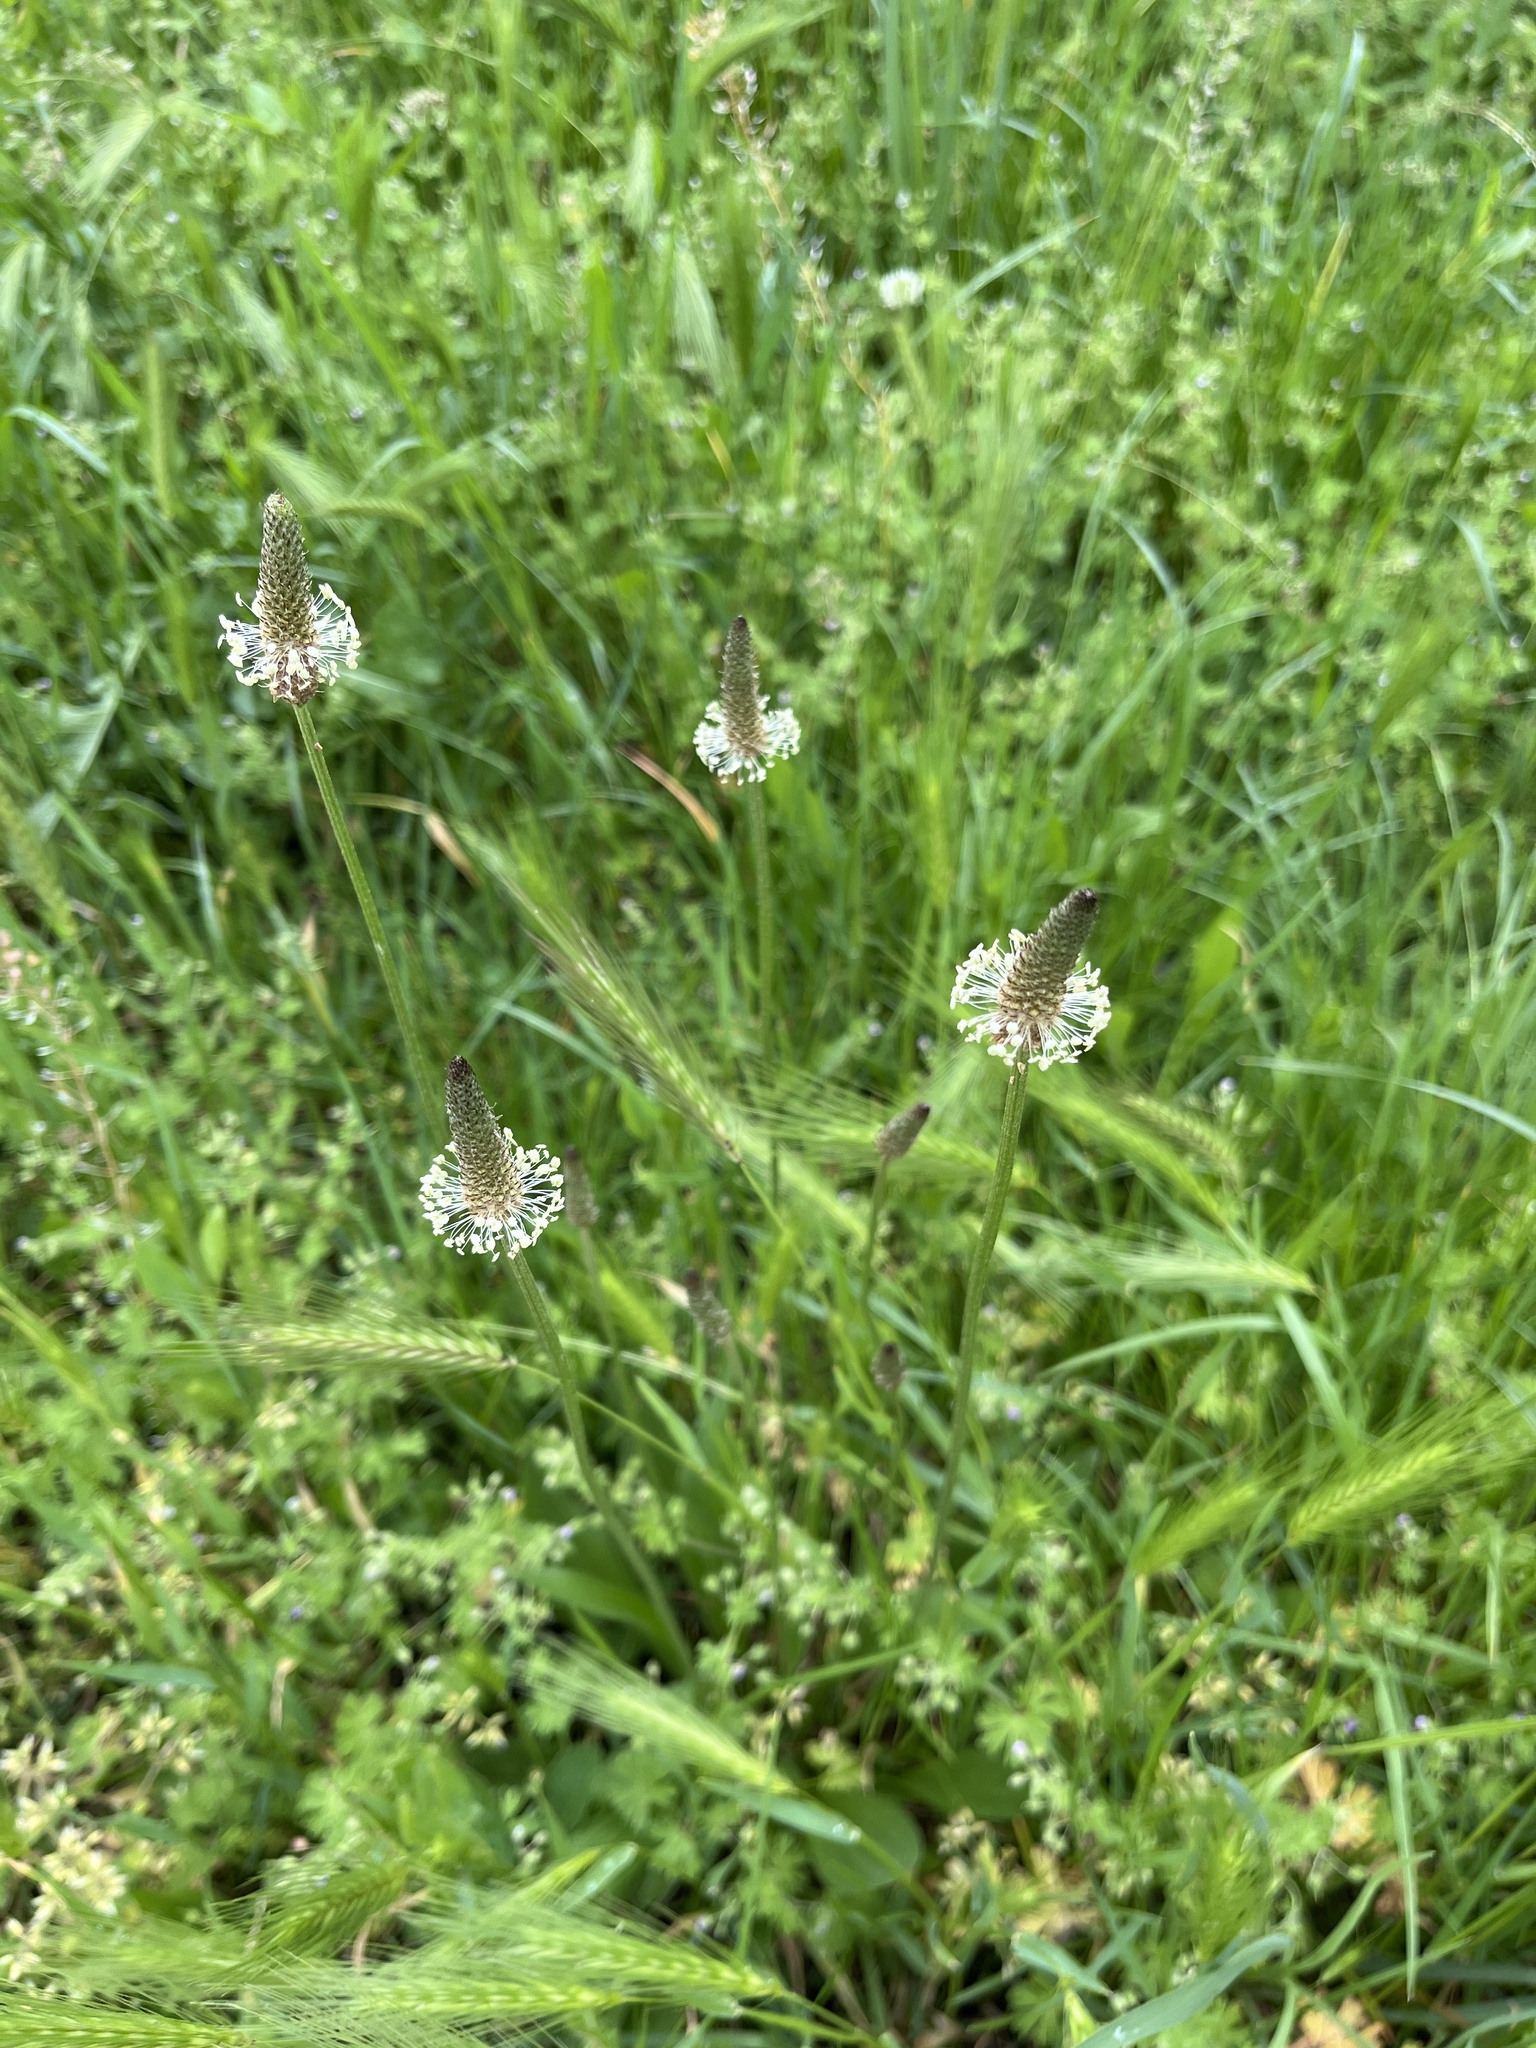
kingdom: Plantae
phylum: Tracheophyta
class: Magnoliopsida
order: Lamiales
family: Plantaginaceae
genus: Plantago
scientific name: Plantago lanceolata
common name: Ribwort plantain
